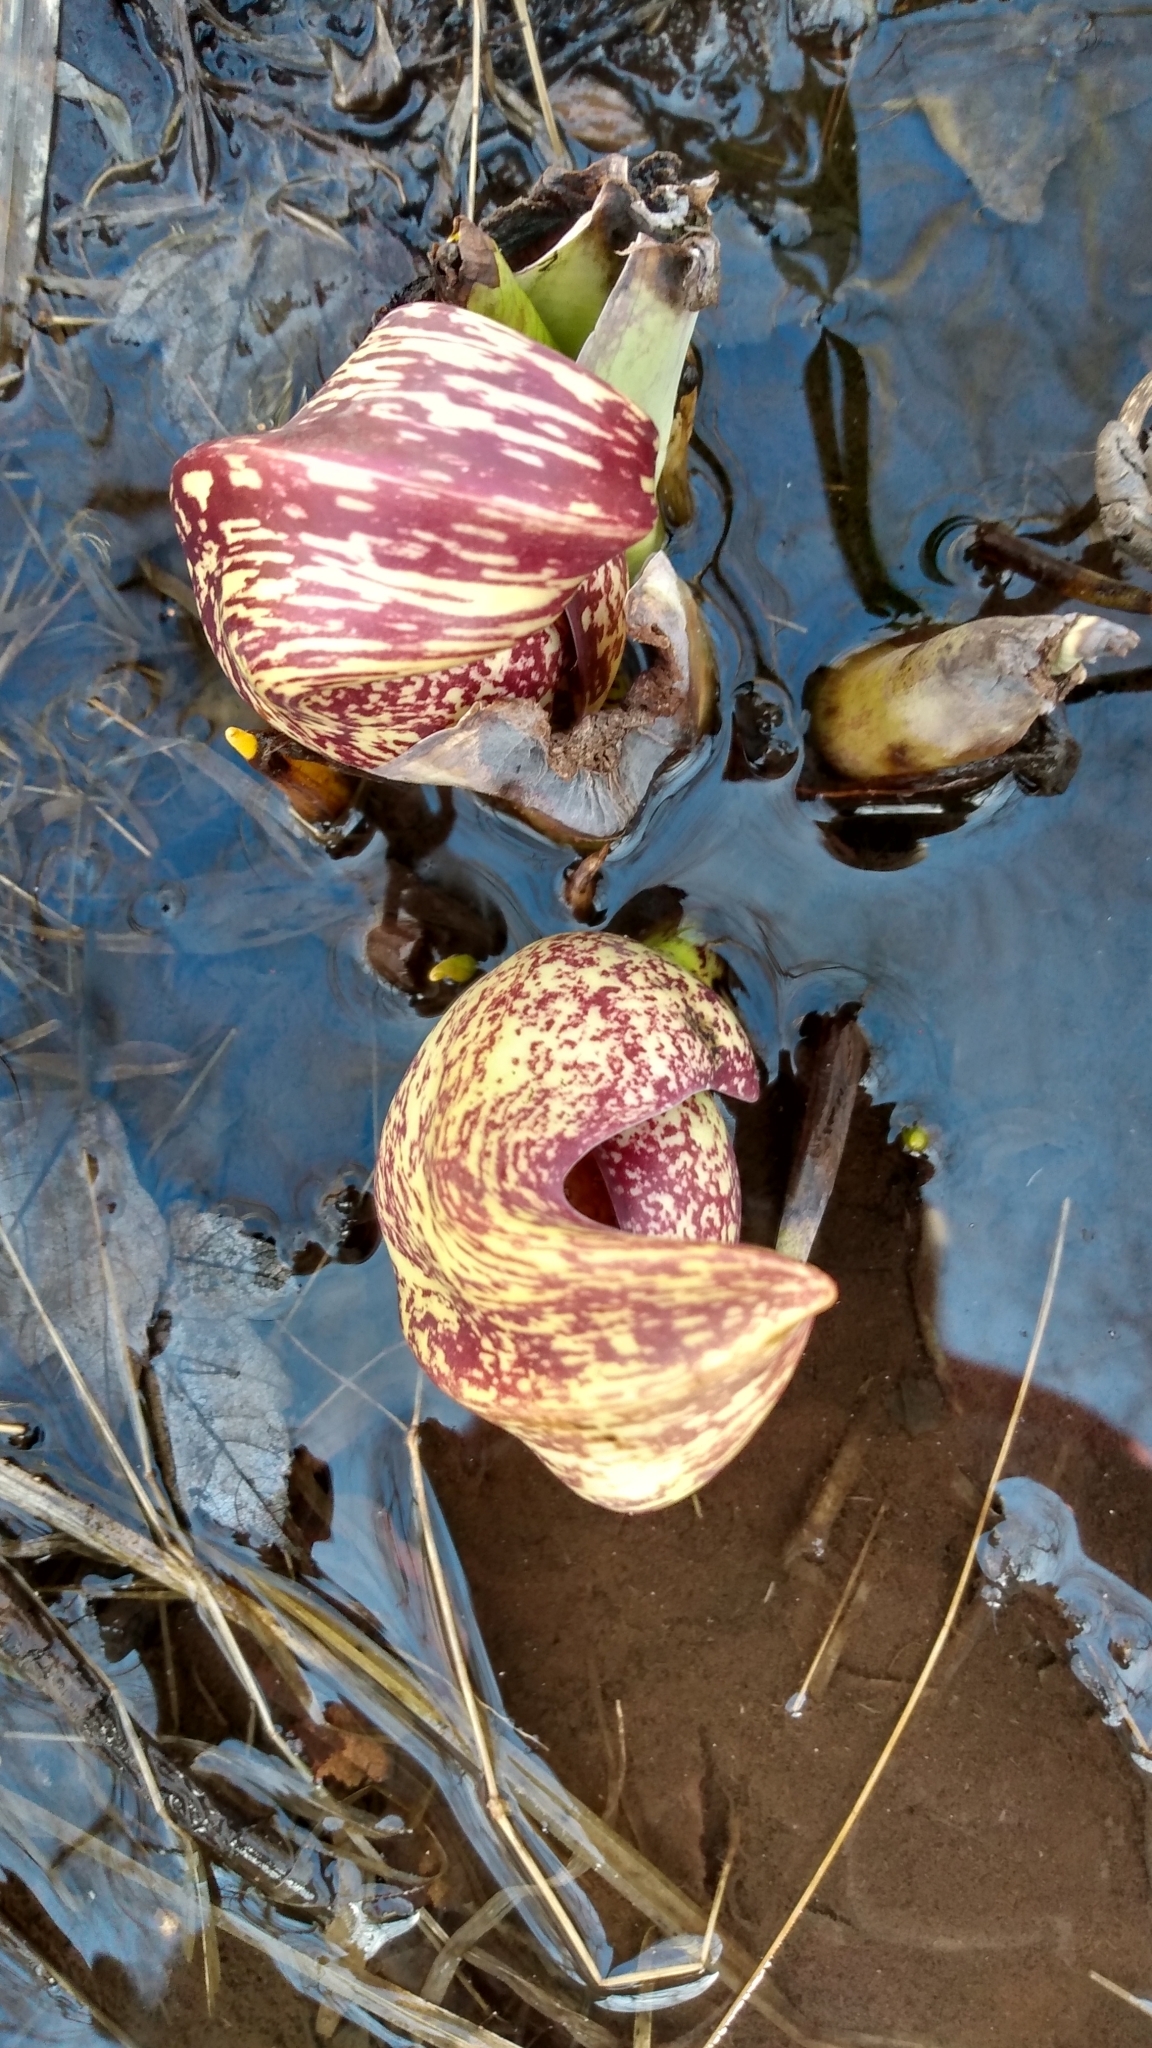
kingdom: Plantae
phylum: Tracheophyta
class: Liliopsida
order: Alismatales
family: Araceae
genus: Symplocarpus
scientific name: Symplocarpus foetidus
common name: Eastern skunk cabbage
